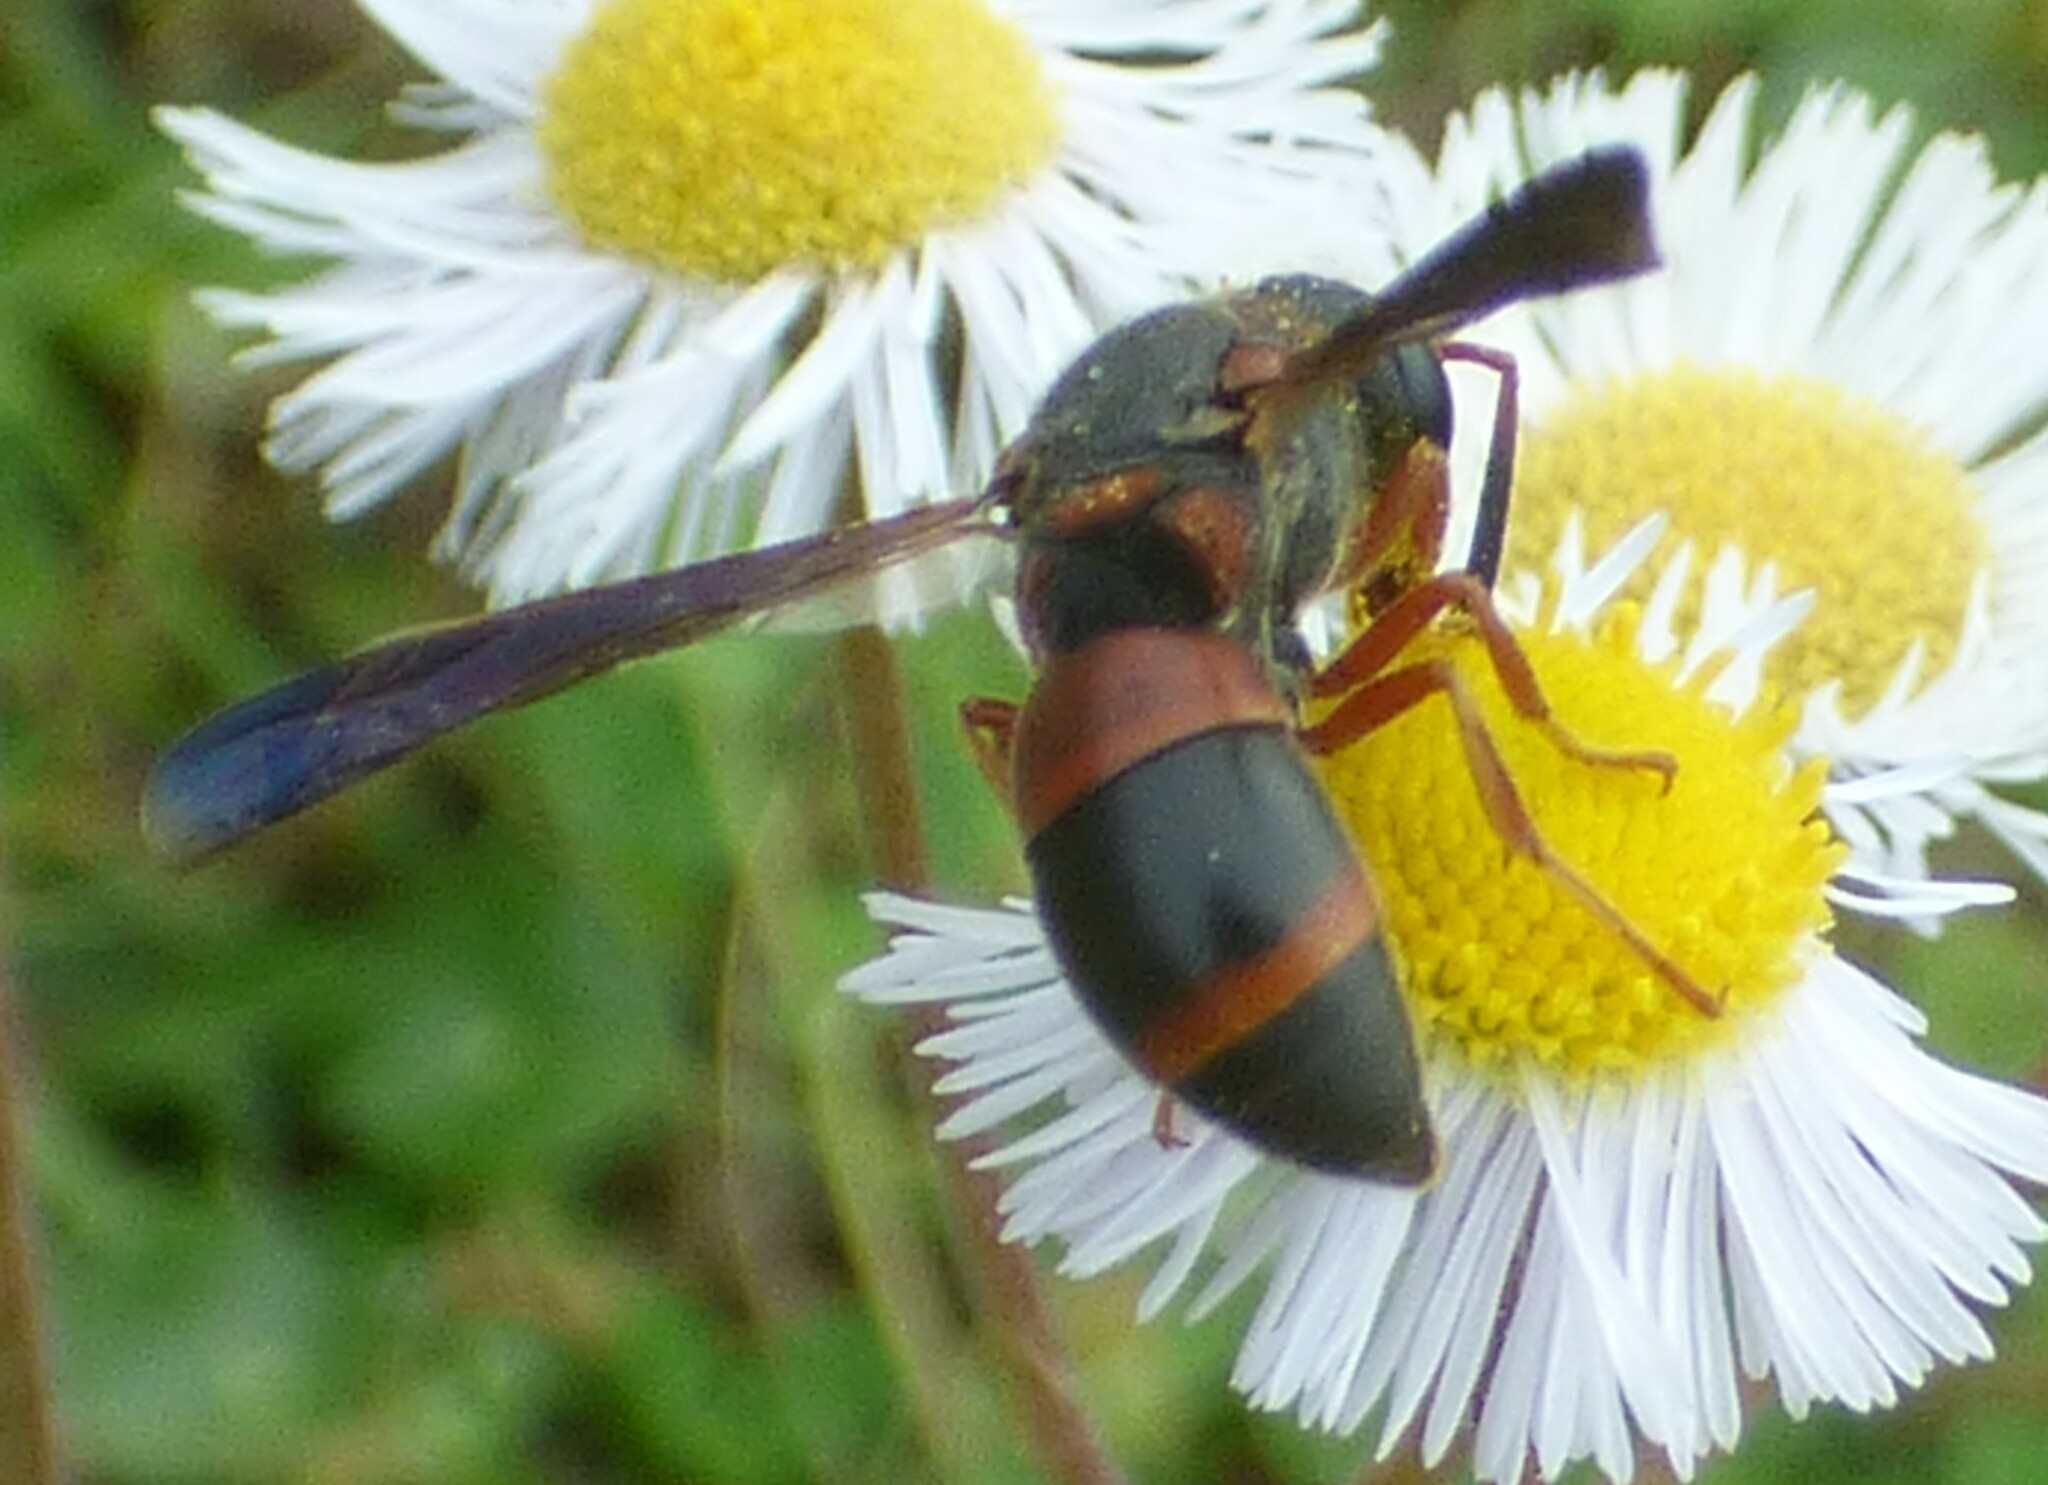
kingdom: Animalia
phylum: Arthropoda
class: Insecta
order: Hymenoptera
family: Eumenidae
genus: Pachodynerus
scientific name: Pachodynerus erynnis
